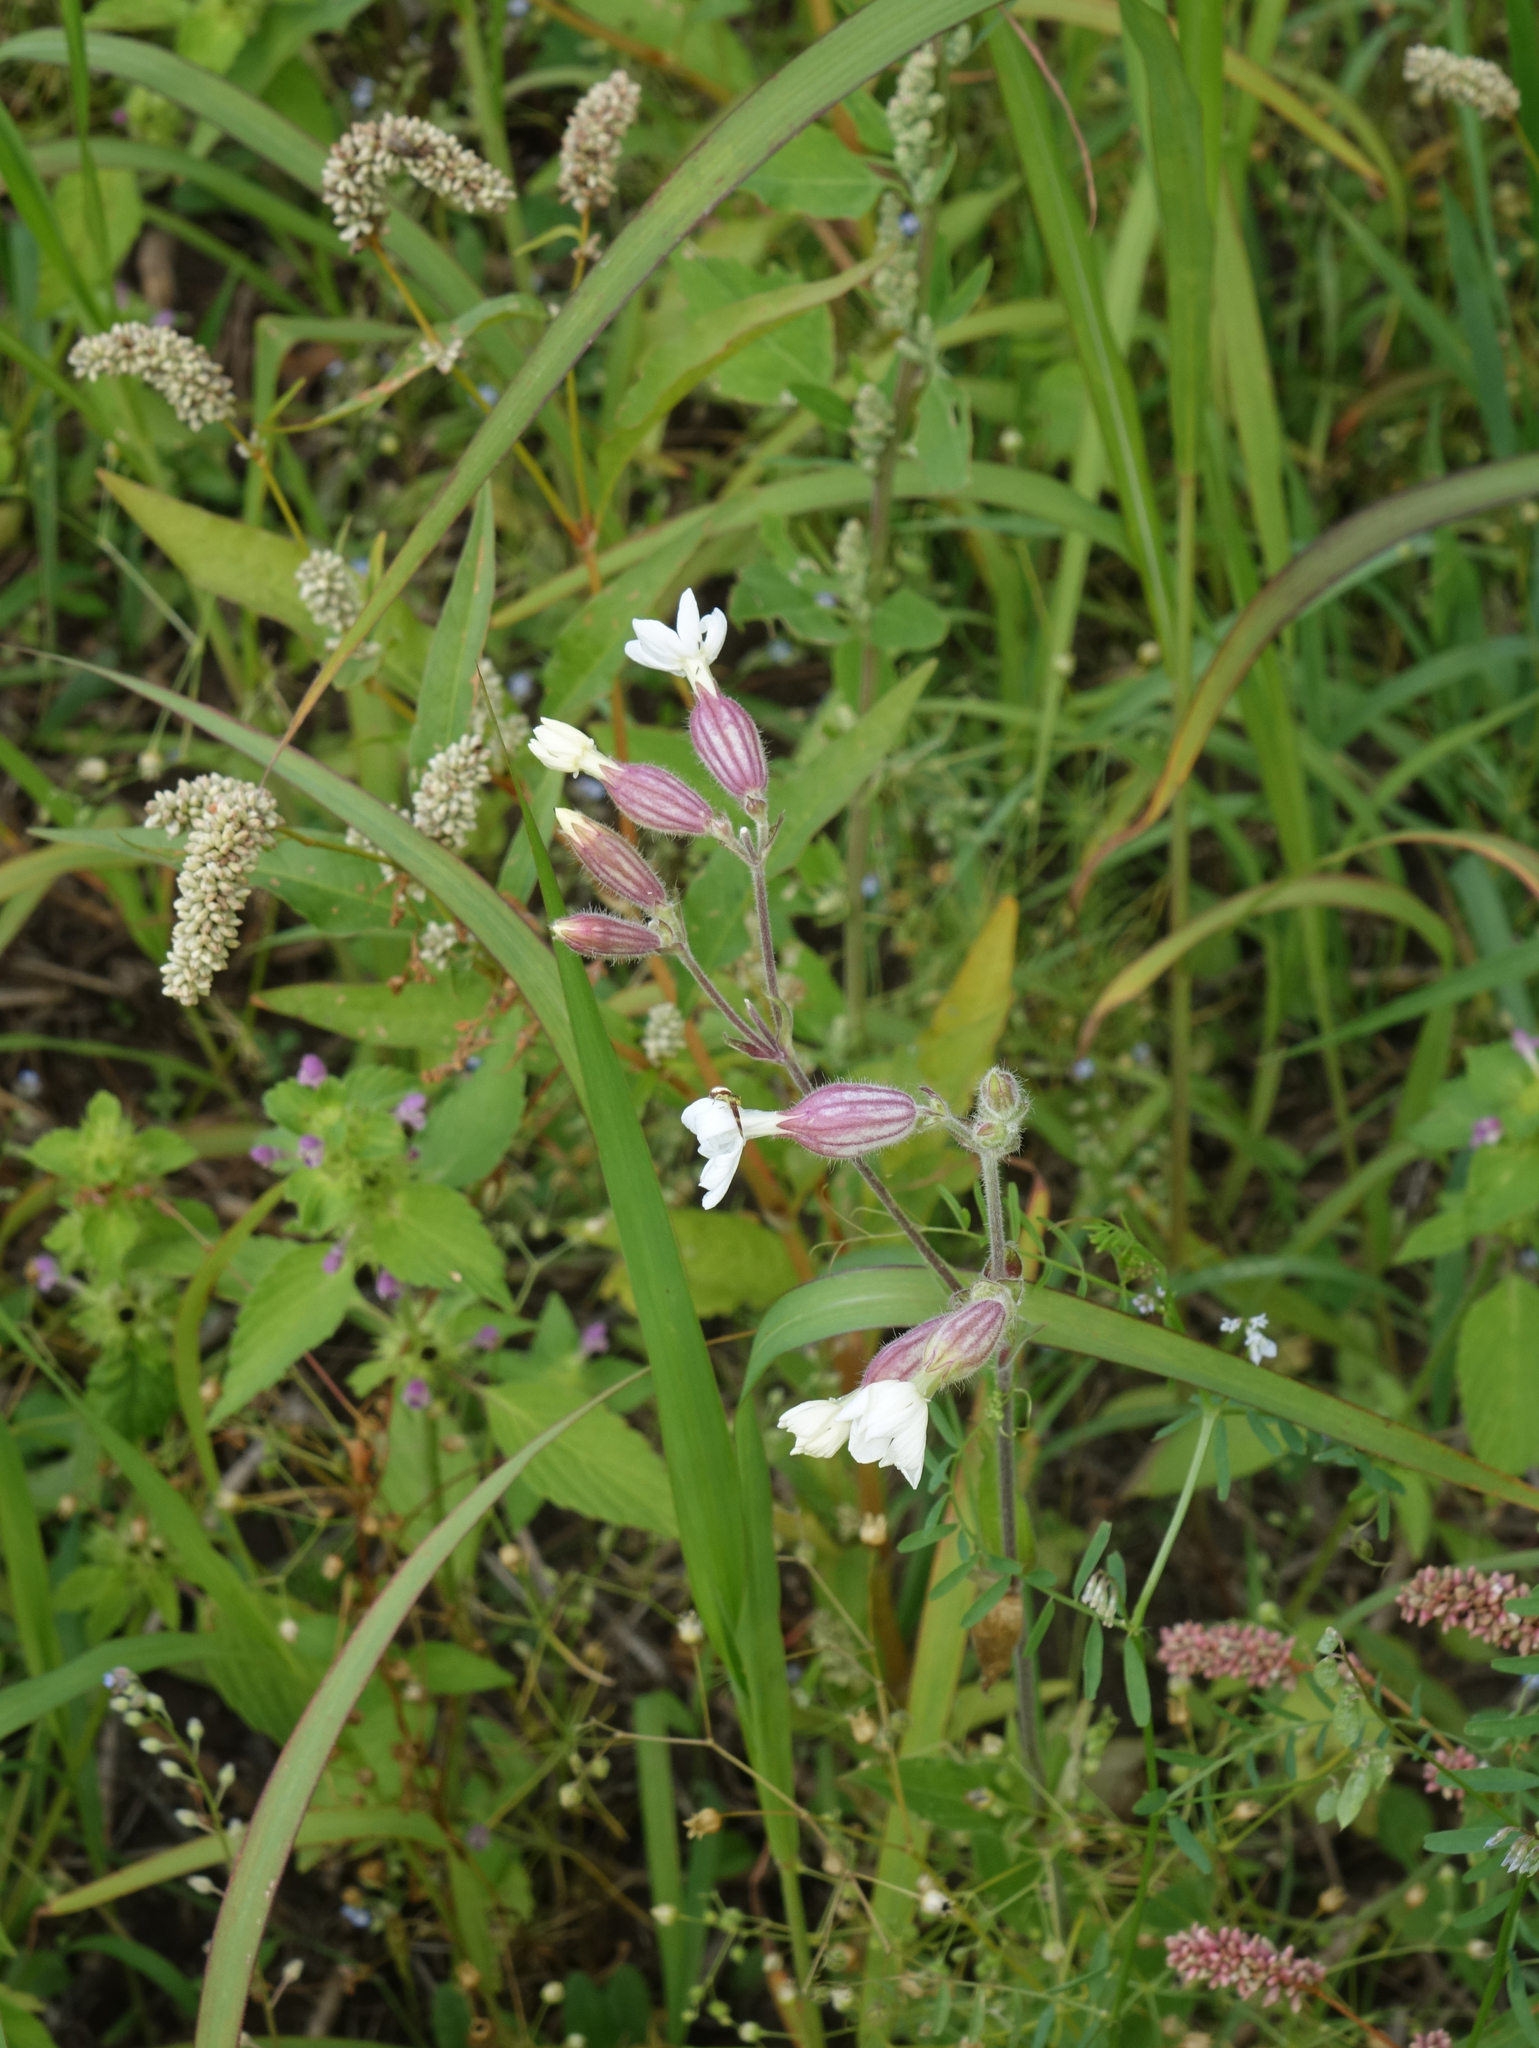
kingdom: Plantae
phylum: Tracheophyta
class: Magnoliopsida
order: Caryophyllales
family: Caryophyllaceae
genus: Silene
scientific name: Silene latifolia
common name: White campion
